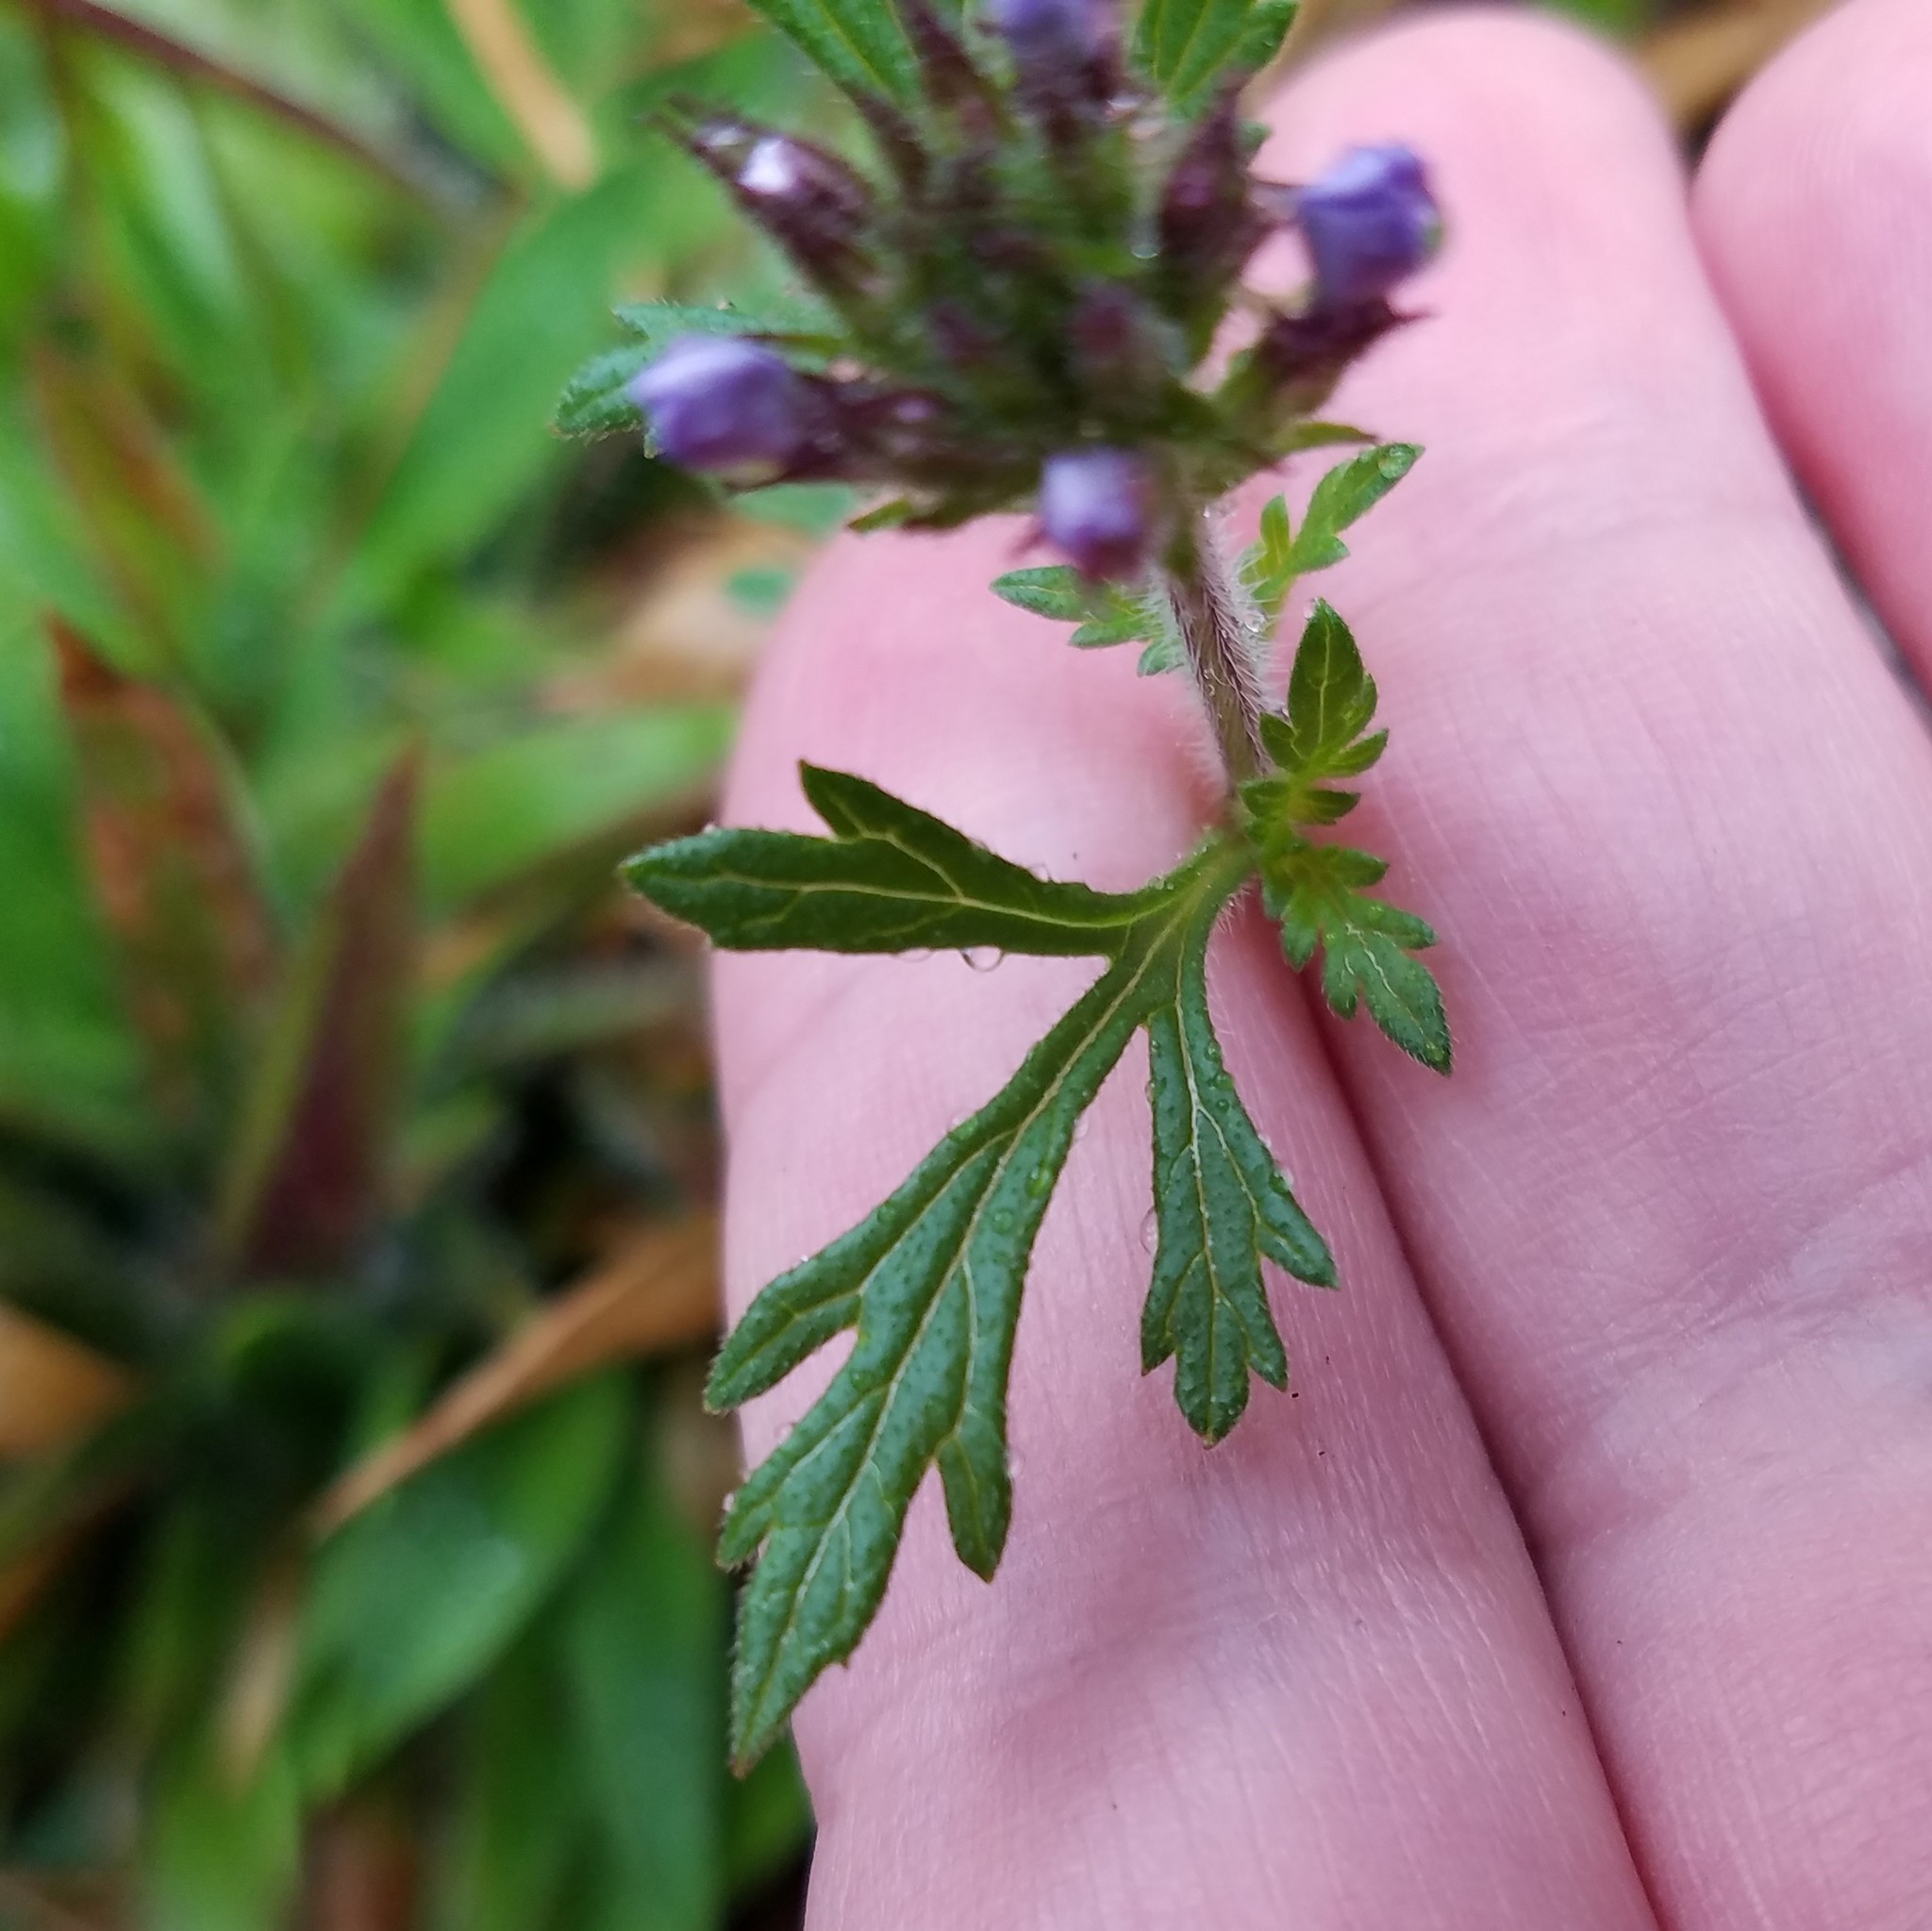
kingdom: Plantae
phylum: Tracheophyta
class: Magnoliopsida
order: Lamiales
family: Verbenaceae
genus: Verbena
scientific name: Verbena canadensis
